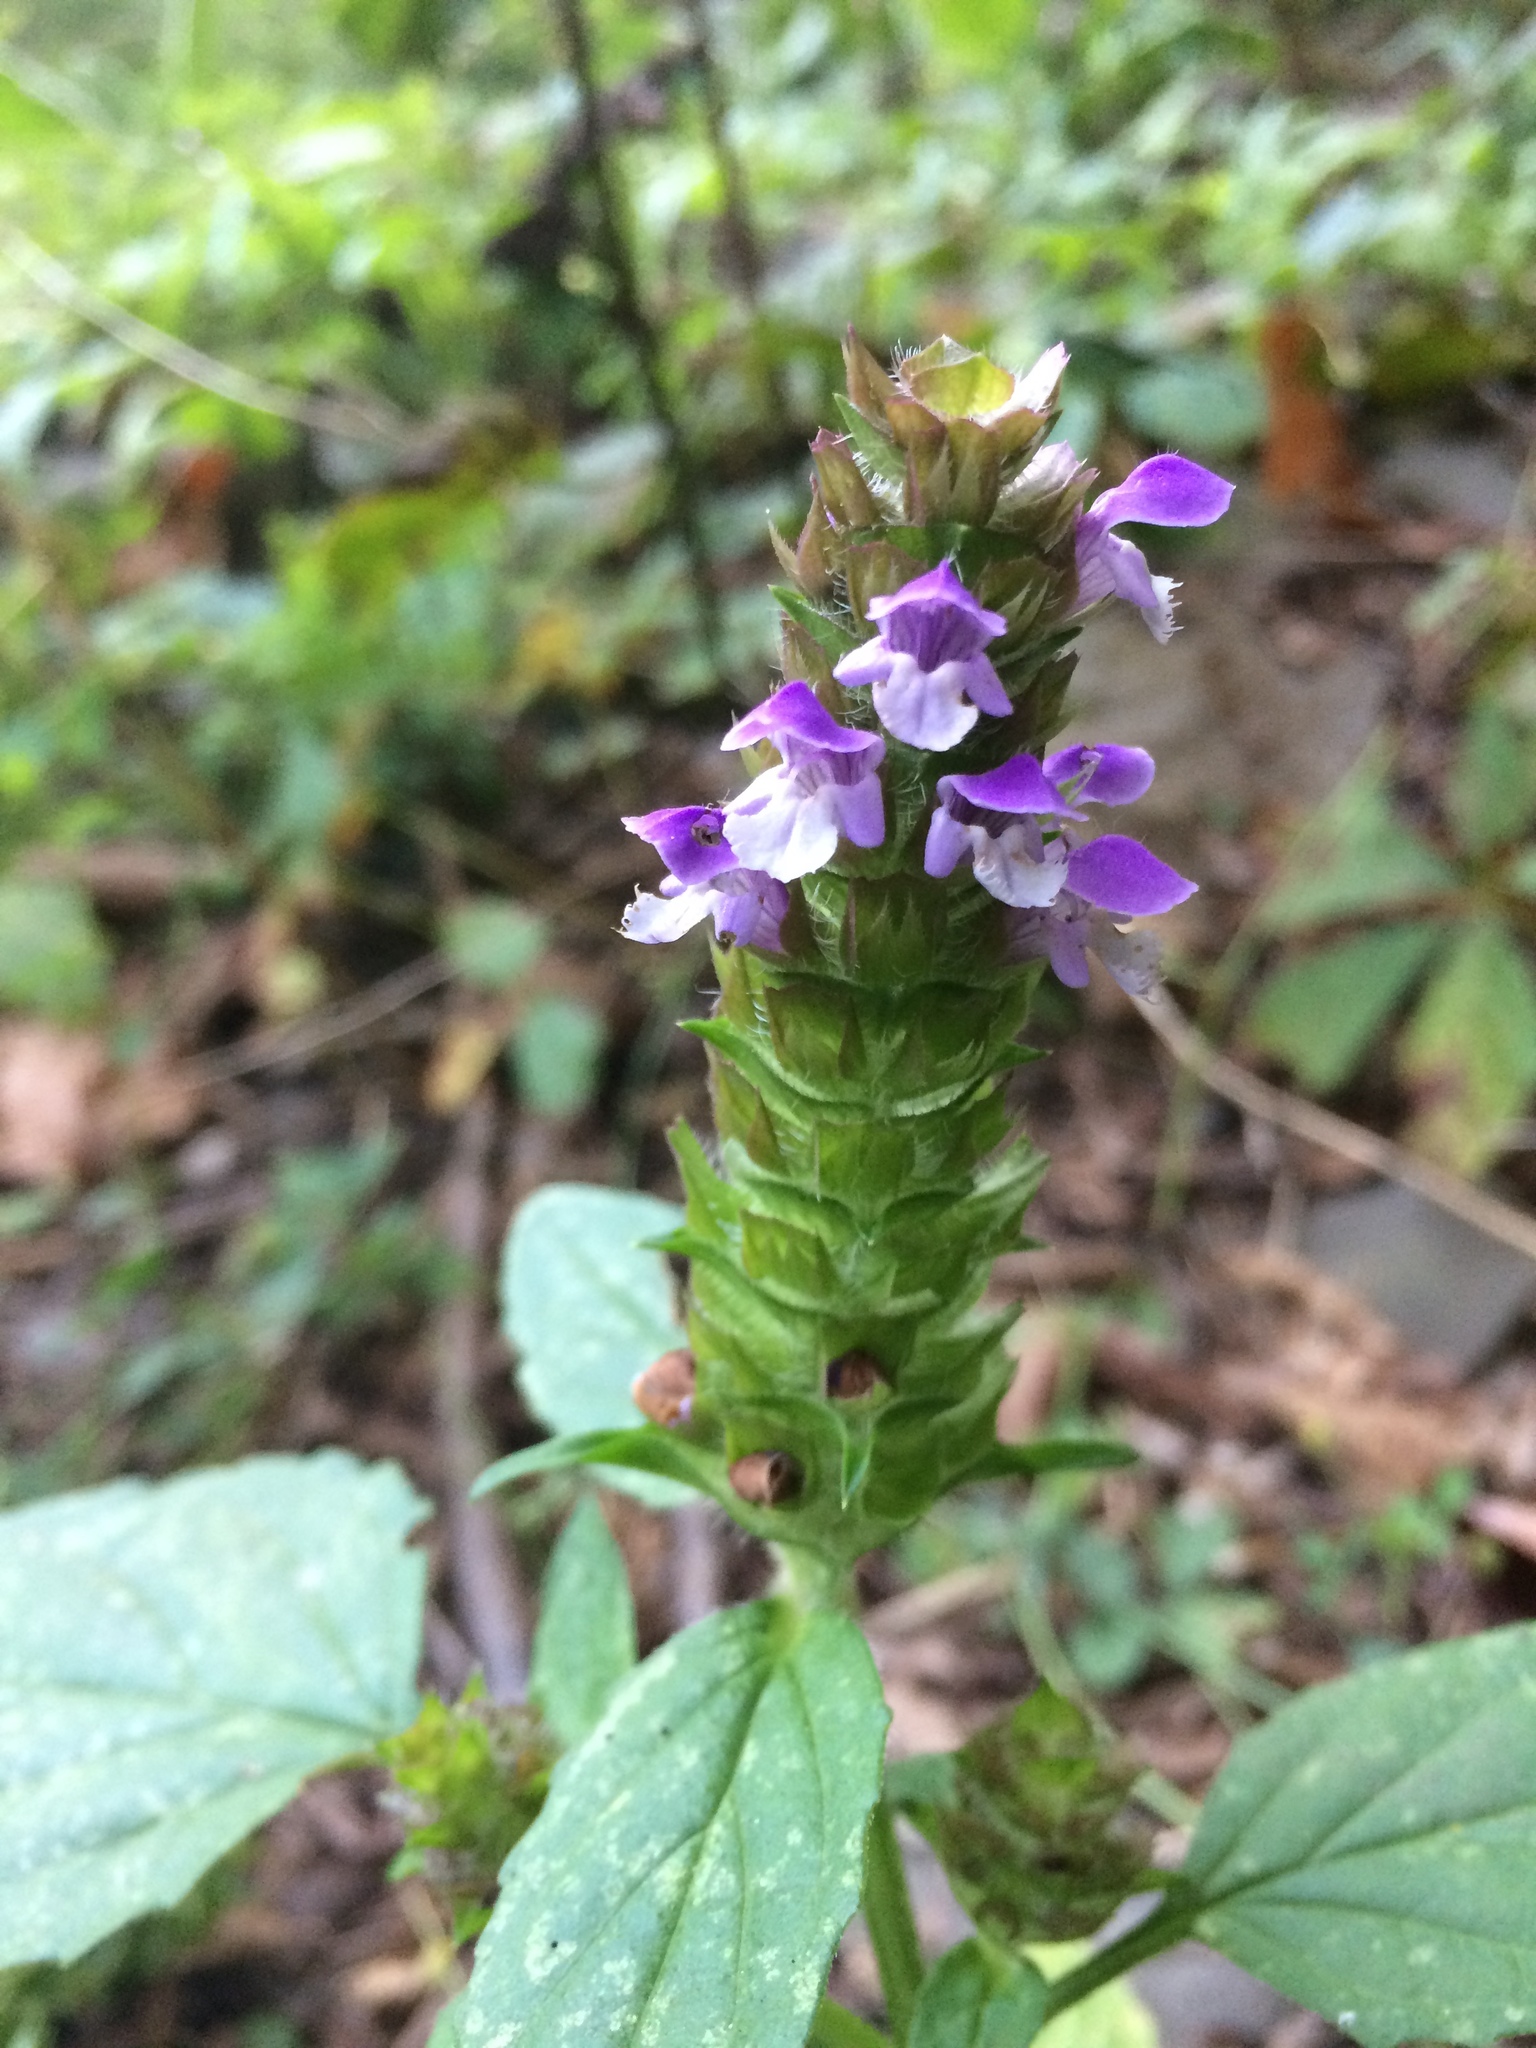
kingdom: Plantae
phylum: Tracheophyta
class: Magnoliopsida
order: Lamiales
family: Lamiaceae
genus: Prunella
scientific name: Prunella vulgaris
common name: Heal-all
